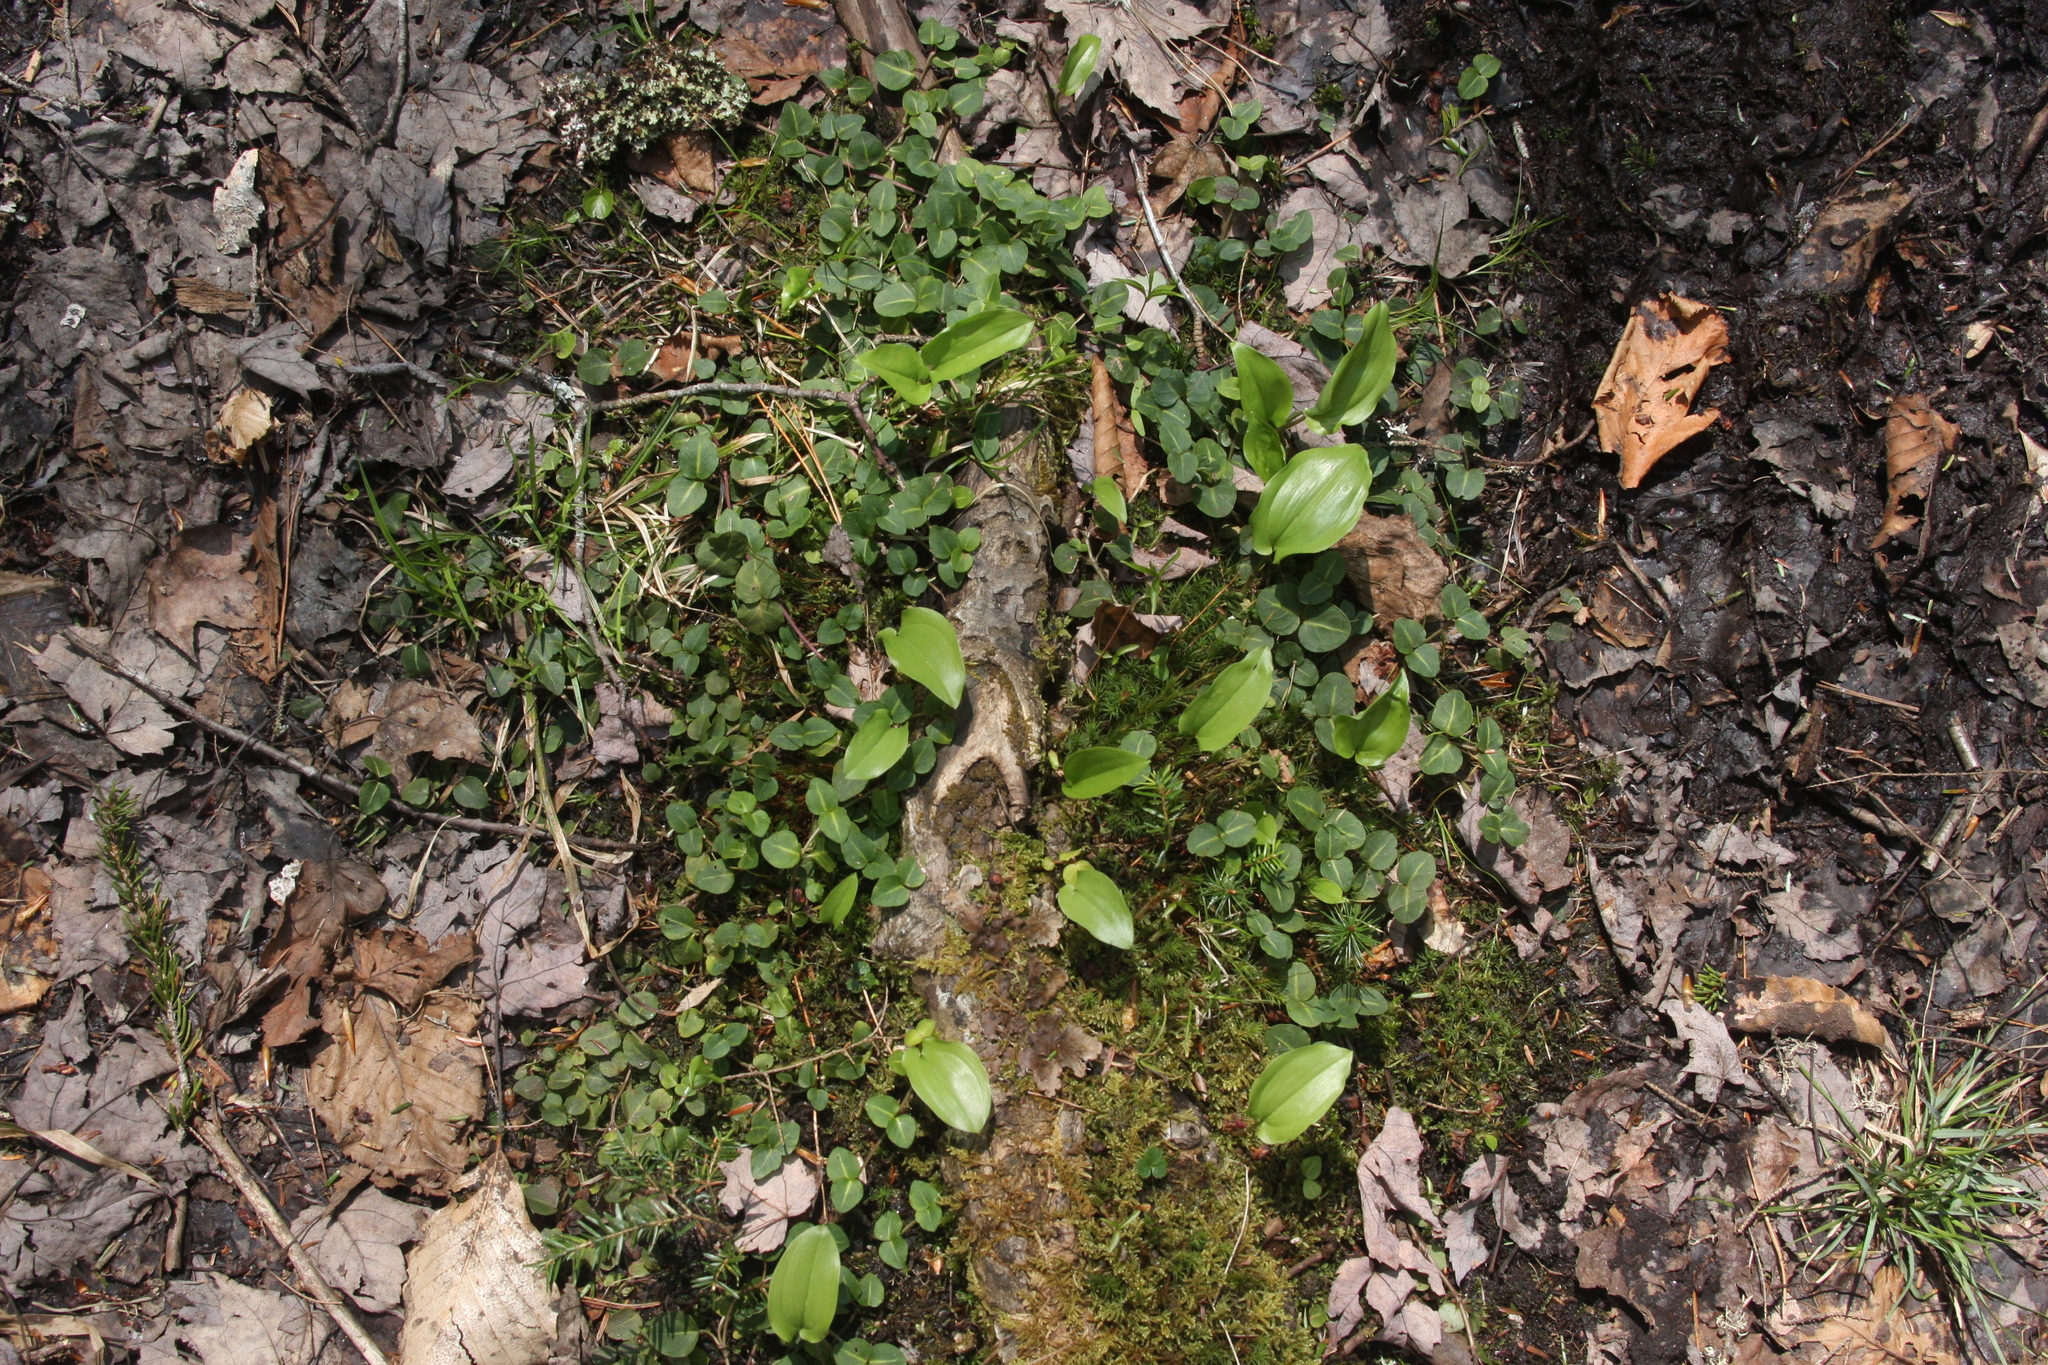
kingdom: Plantae
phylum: Tracheophyta
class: Liliopsida
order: Asparagales
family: Asparagaceae
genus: Maianthemum
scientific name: Maianthemum canadense
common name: False lily-of-the-valley
